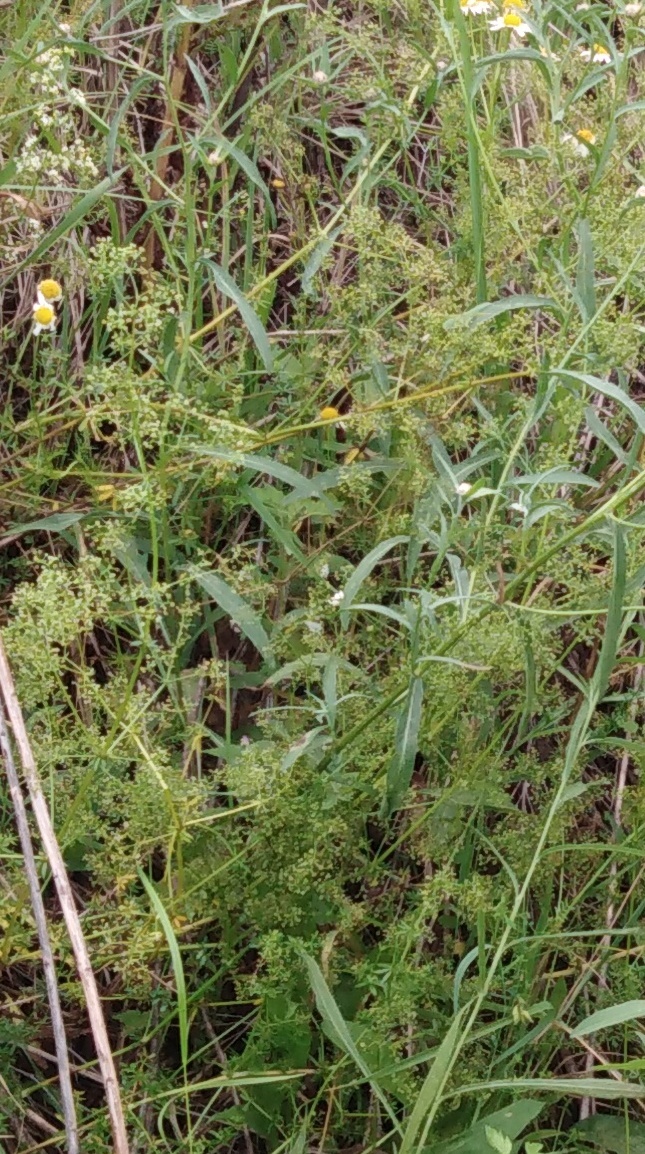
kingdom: Plantae
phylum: Tracheophyta
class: Magnoliopsida
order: Gentianales
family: Rubiaceae
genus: Galium
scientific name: Galium mollugo
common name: Hedge bedstraw
